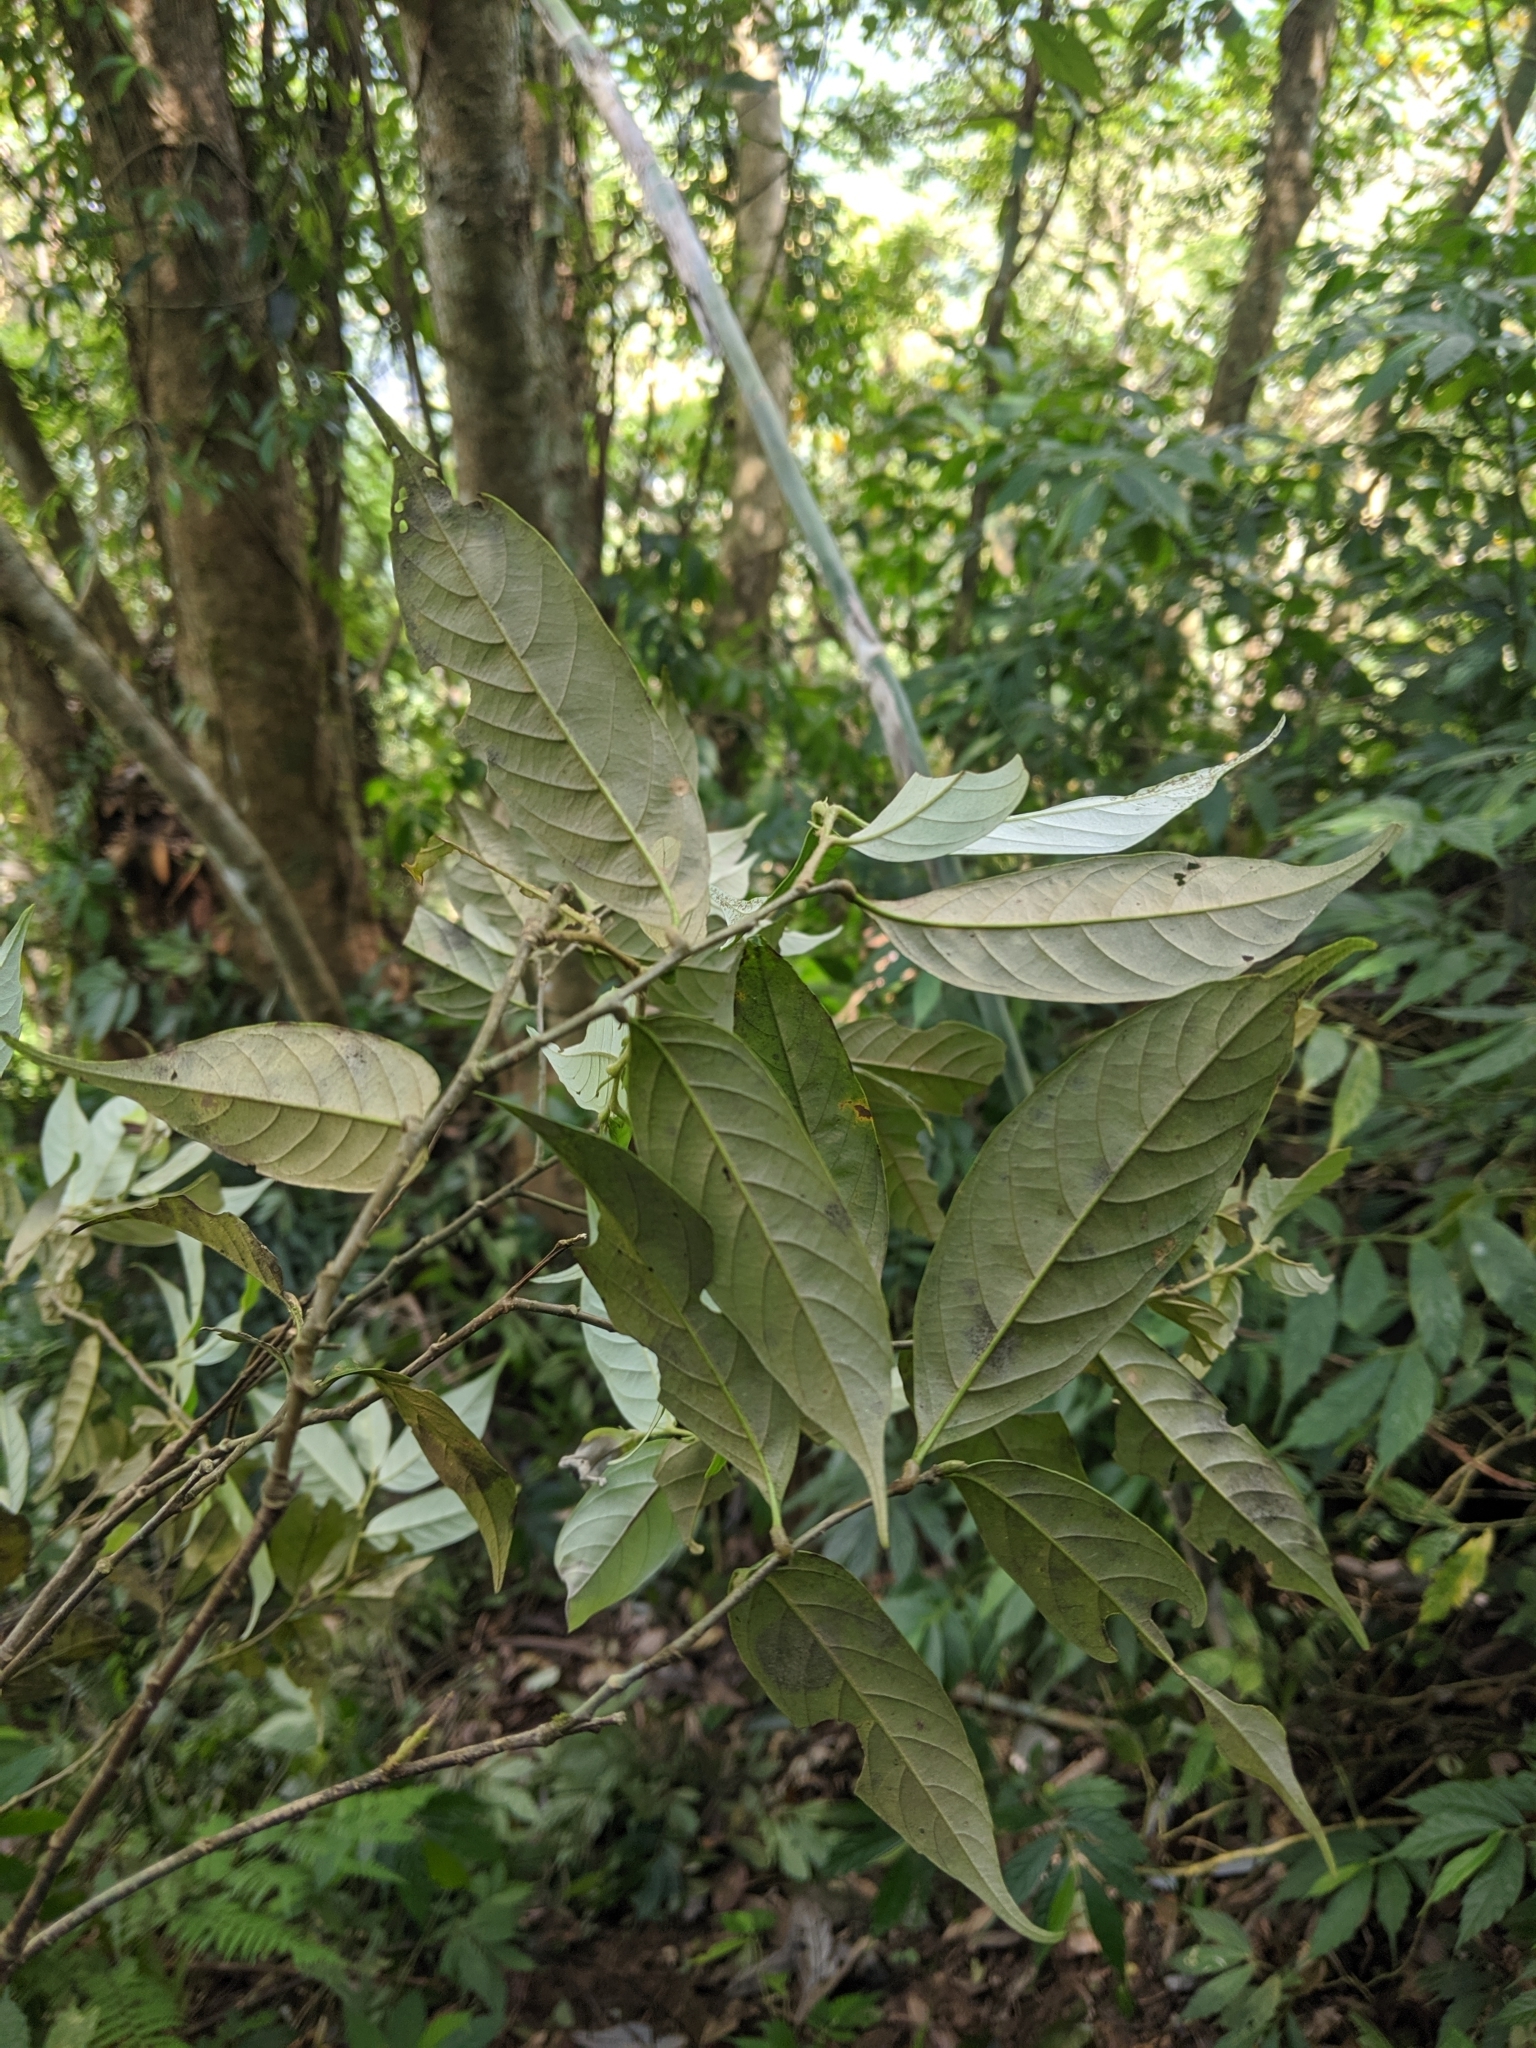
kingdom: Plantae
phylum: Tracheophyta
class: Magnoliopsida
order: Fagales
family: Fagaceae
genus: Castanopsis
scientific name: Castanopsis faberi
